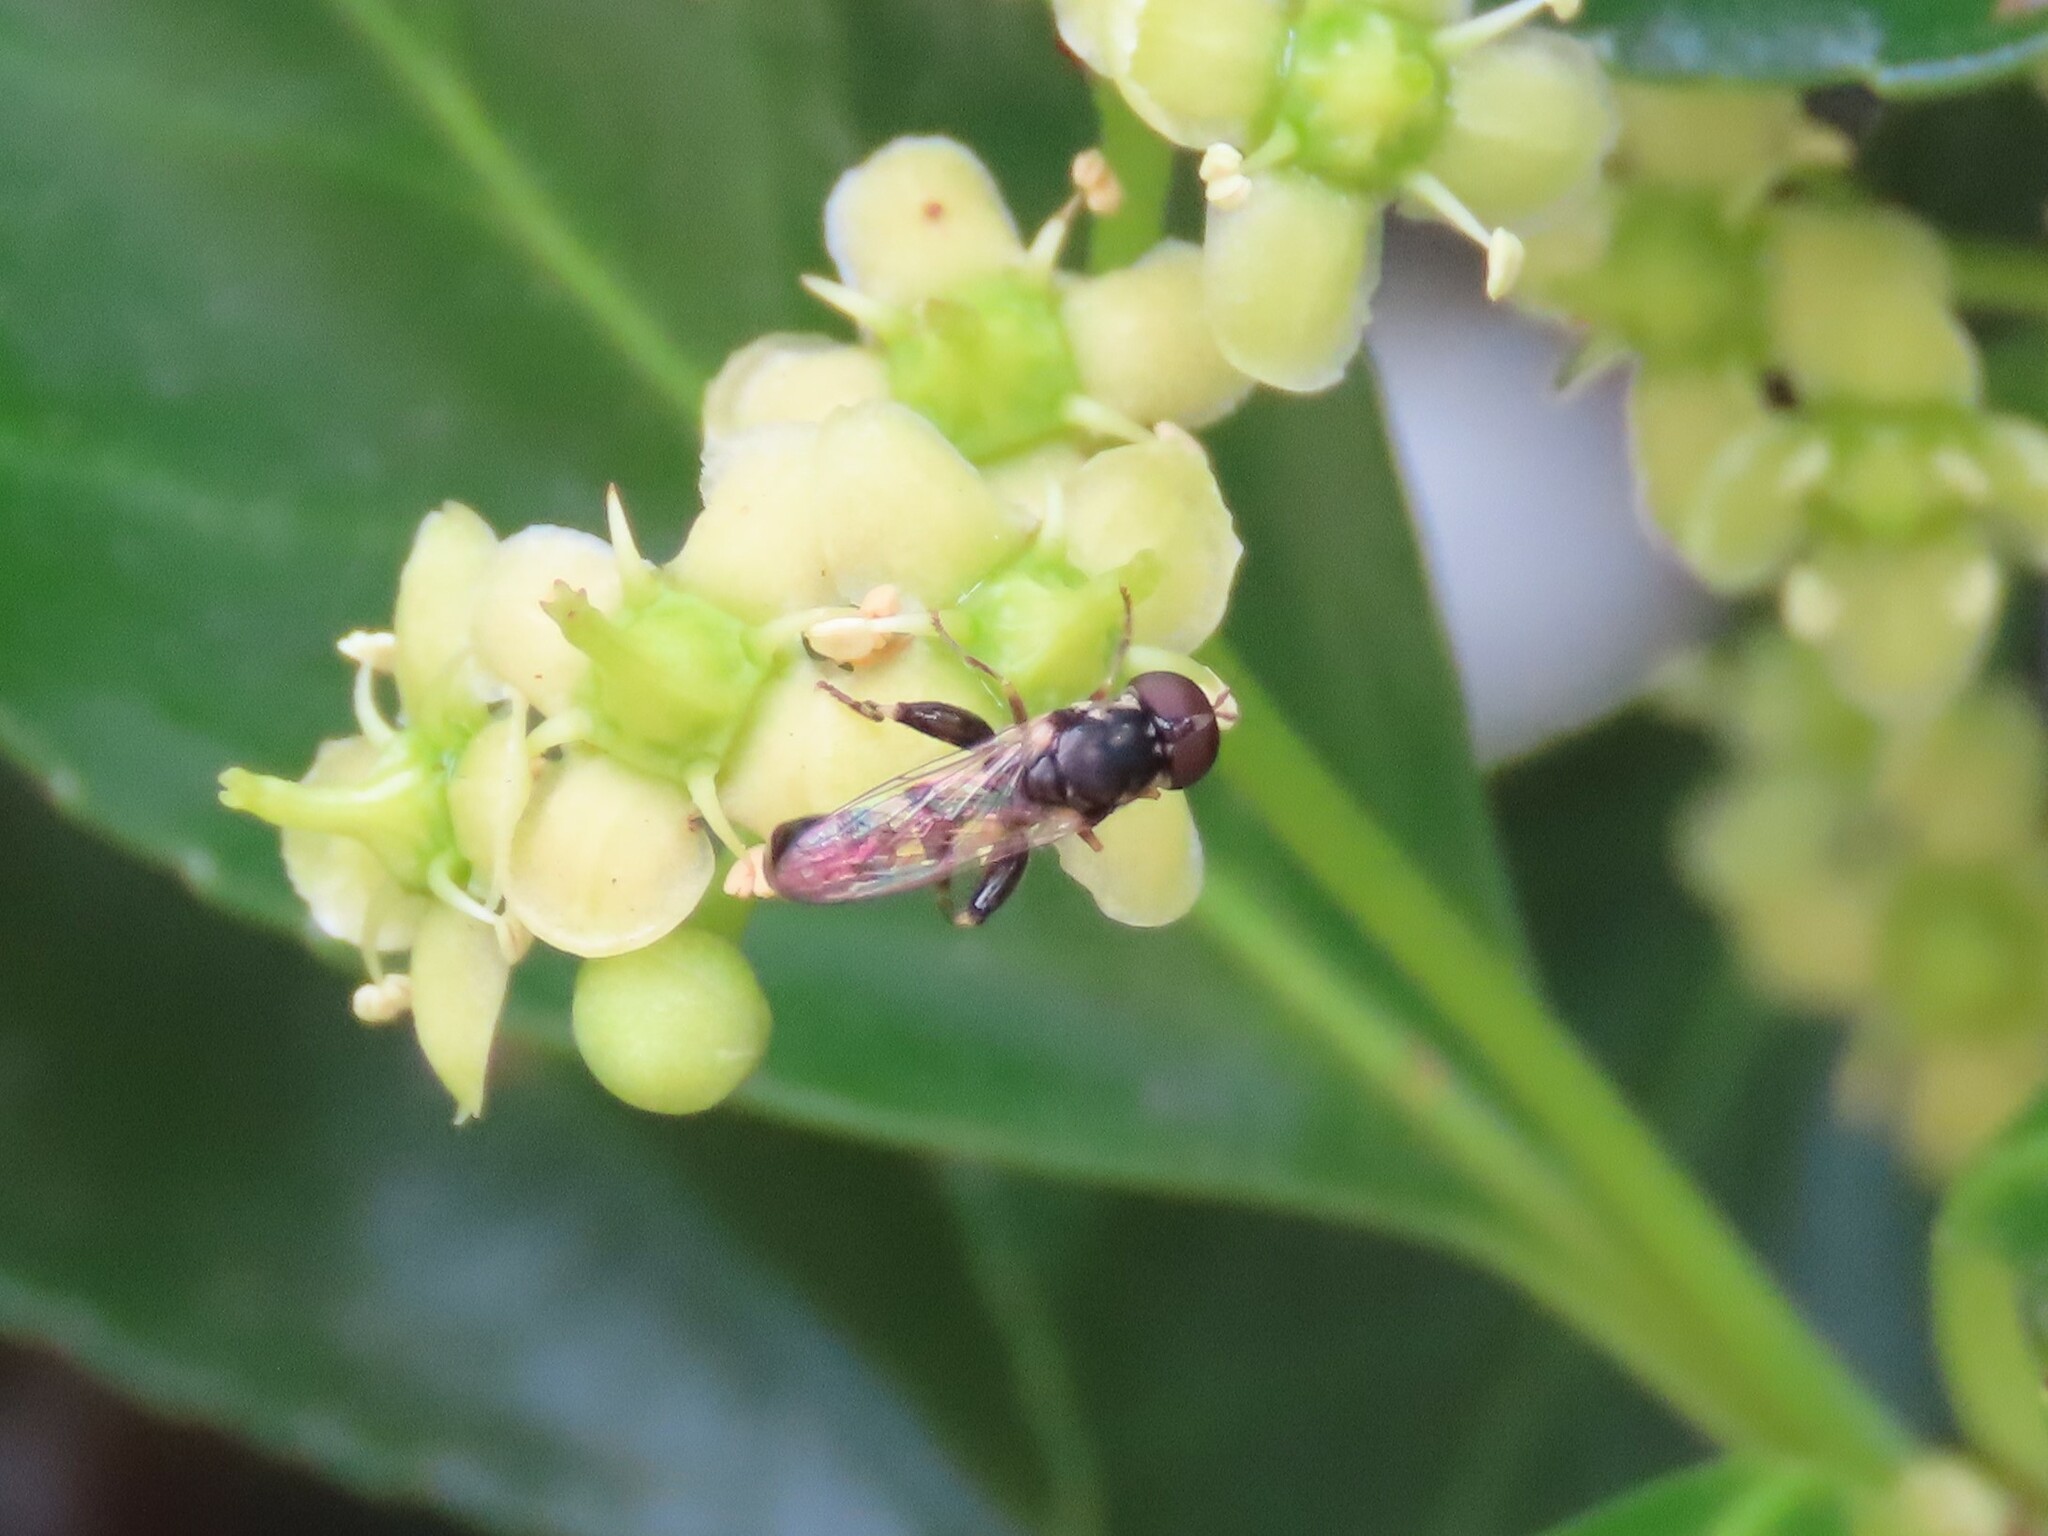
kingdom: Animalia
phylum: Arthropoda
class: Insecta
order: Diptera
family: Syrphidae
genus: Syritta
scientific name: Syritta pipiens
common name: Hover fly
